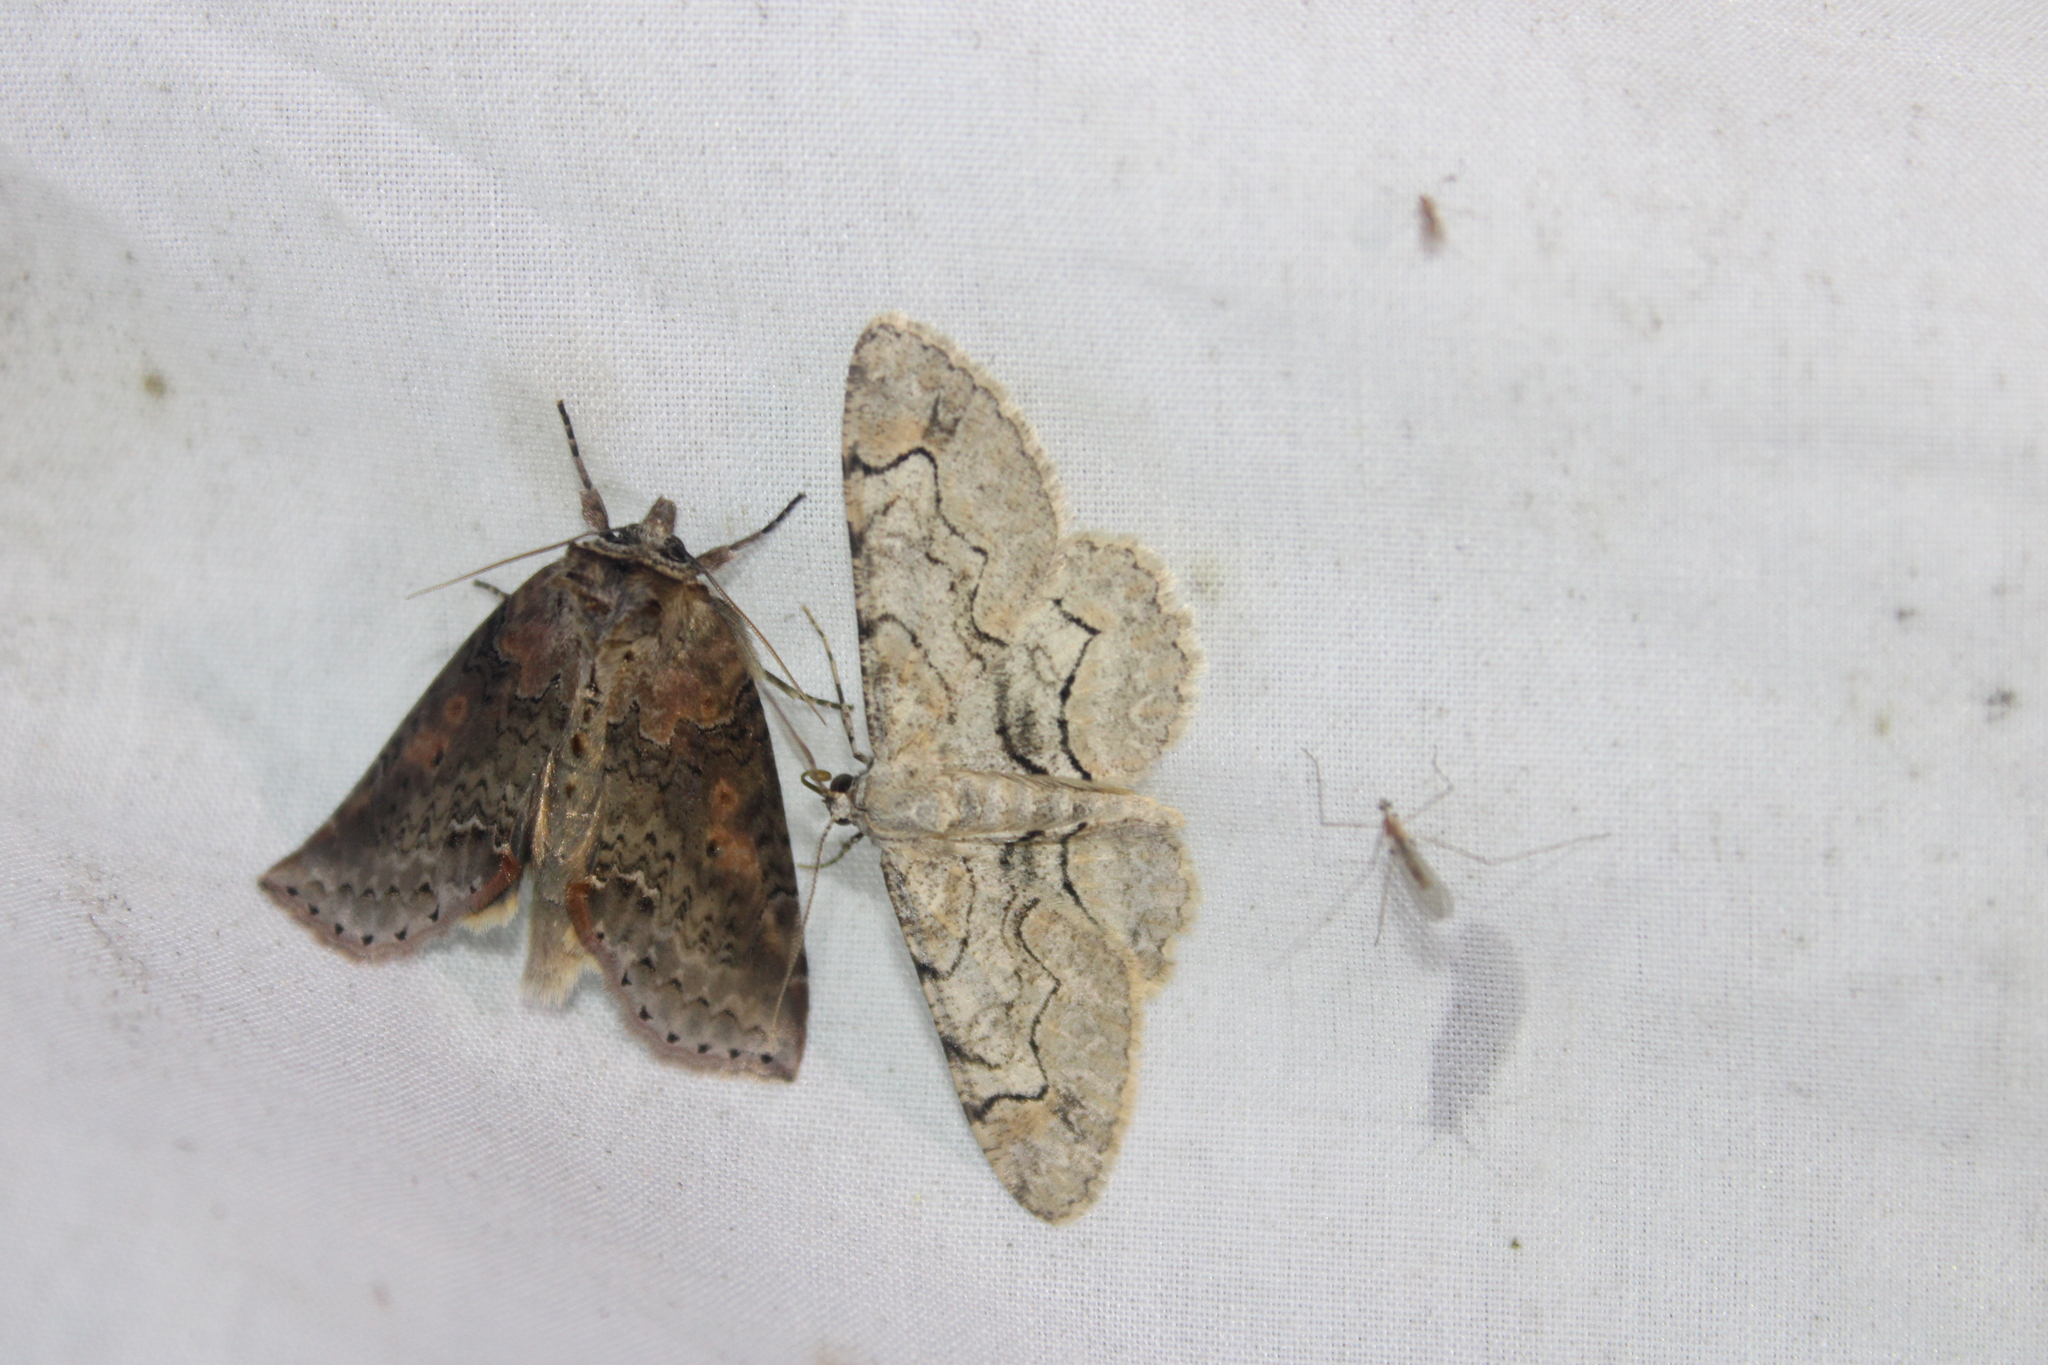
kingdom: Animalia
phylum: Arthropoda
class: Insecta
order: Lepidoptera
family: Geometridae
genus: Iridopsis
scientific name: Iridopsis larvaria
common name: Bent-line gray
